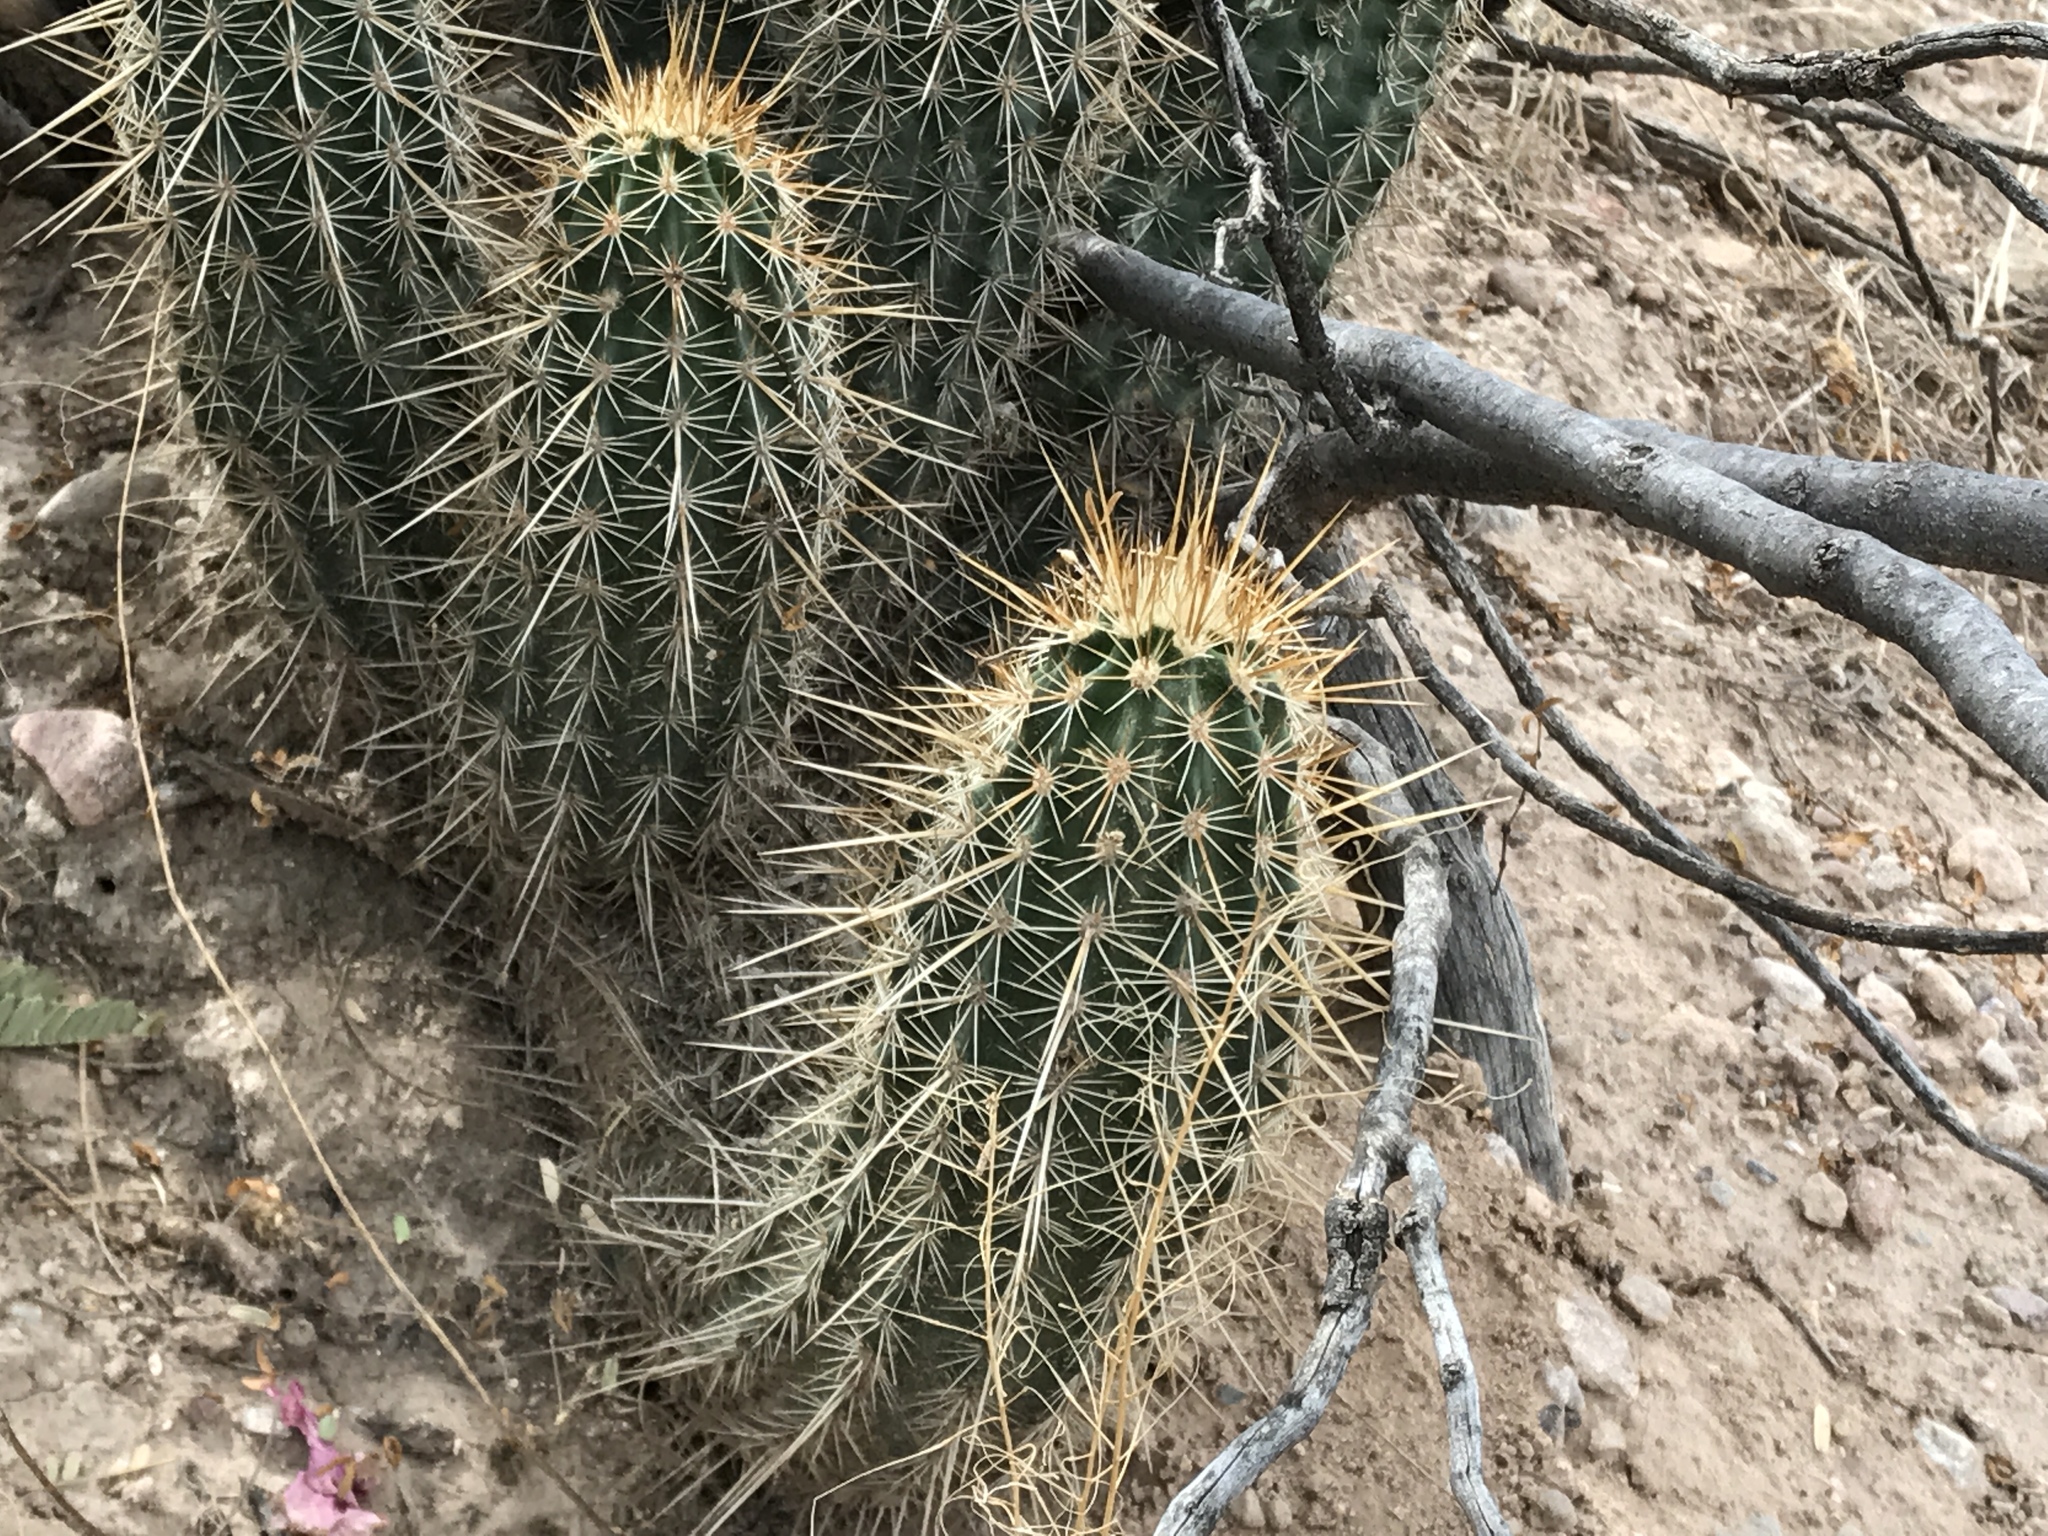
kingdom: Plantae
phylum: Tracheophyta
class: Magnoliopsida
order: Caryophyllales
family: Cactaceae
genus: Echinocereus
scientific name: Echinocereus fasciculatus
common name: Bundle hedgehog
